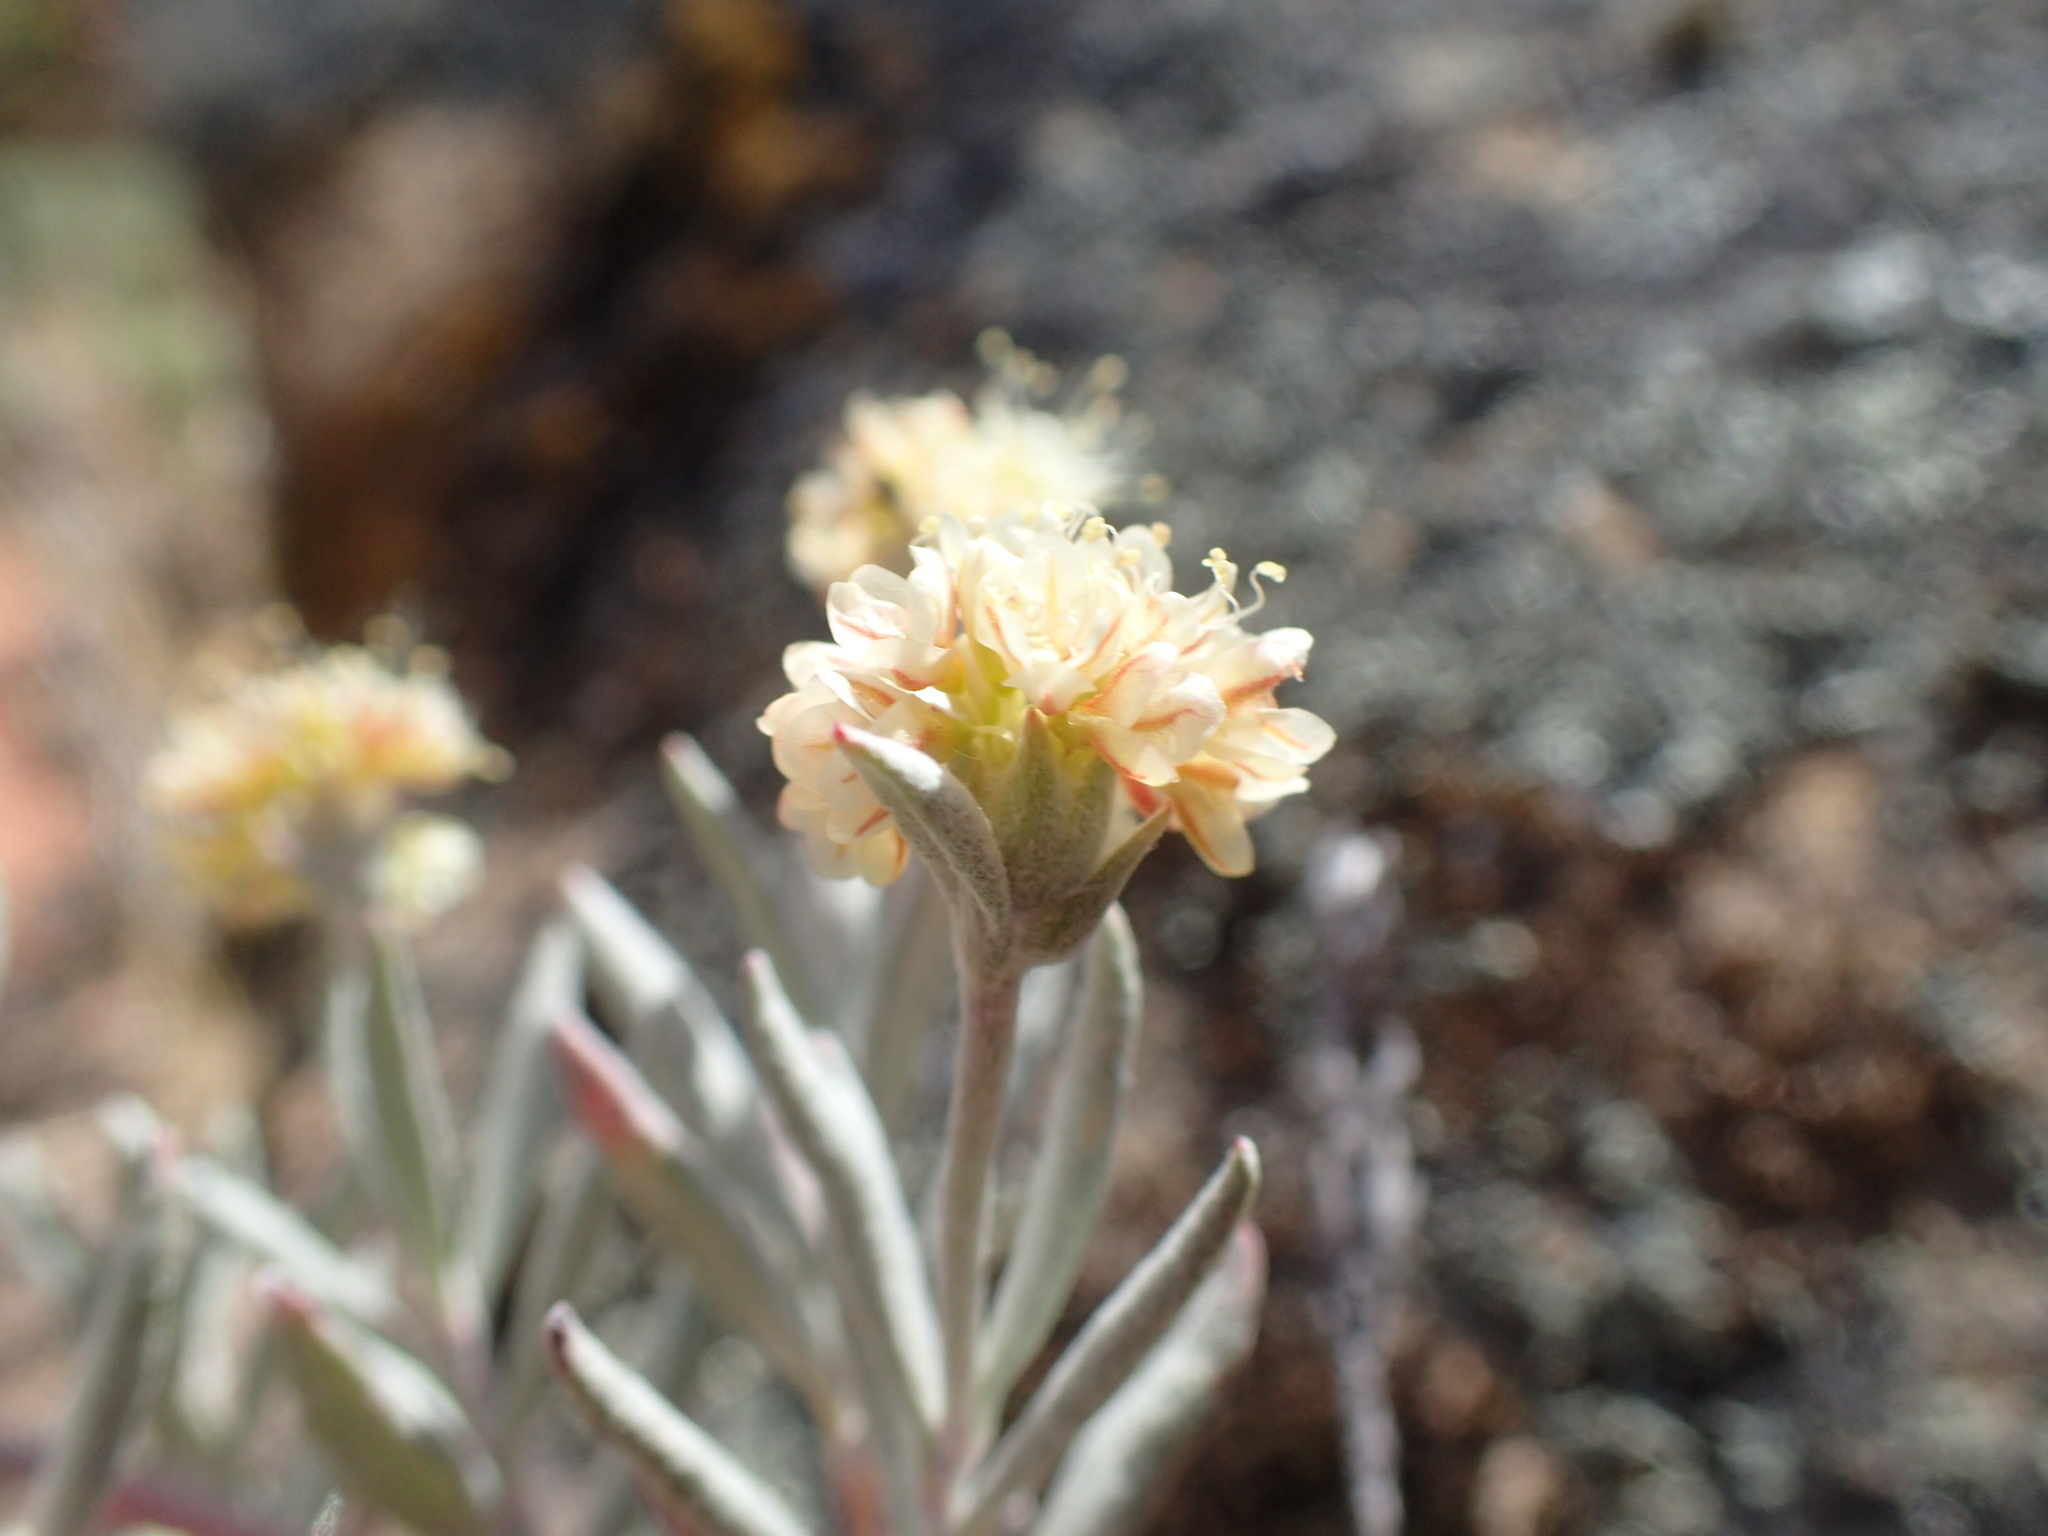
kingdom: Plantae
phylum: Tracheophyta
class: Magnoliopsida
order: Caryophyllales
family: Polygonaceae
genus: Eriogonum
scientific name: Eriogonum butterworthianum
